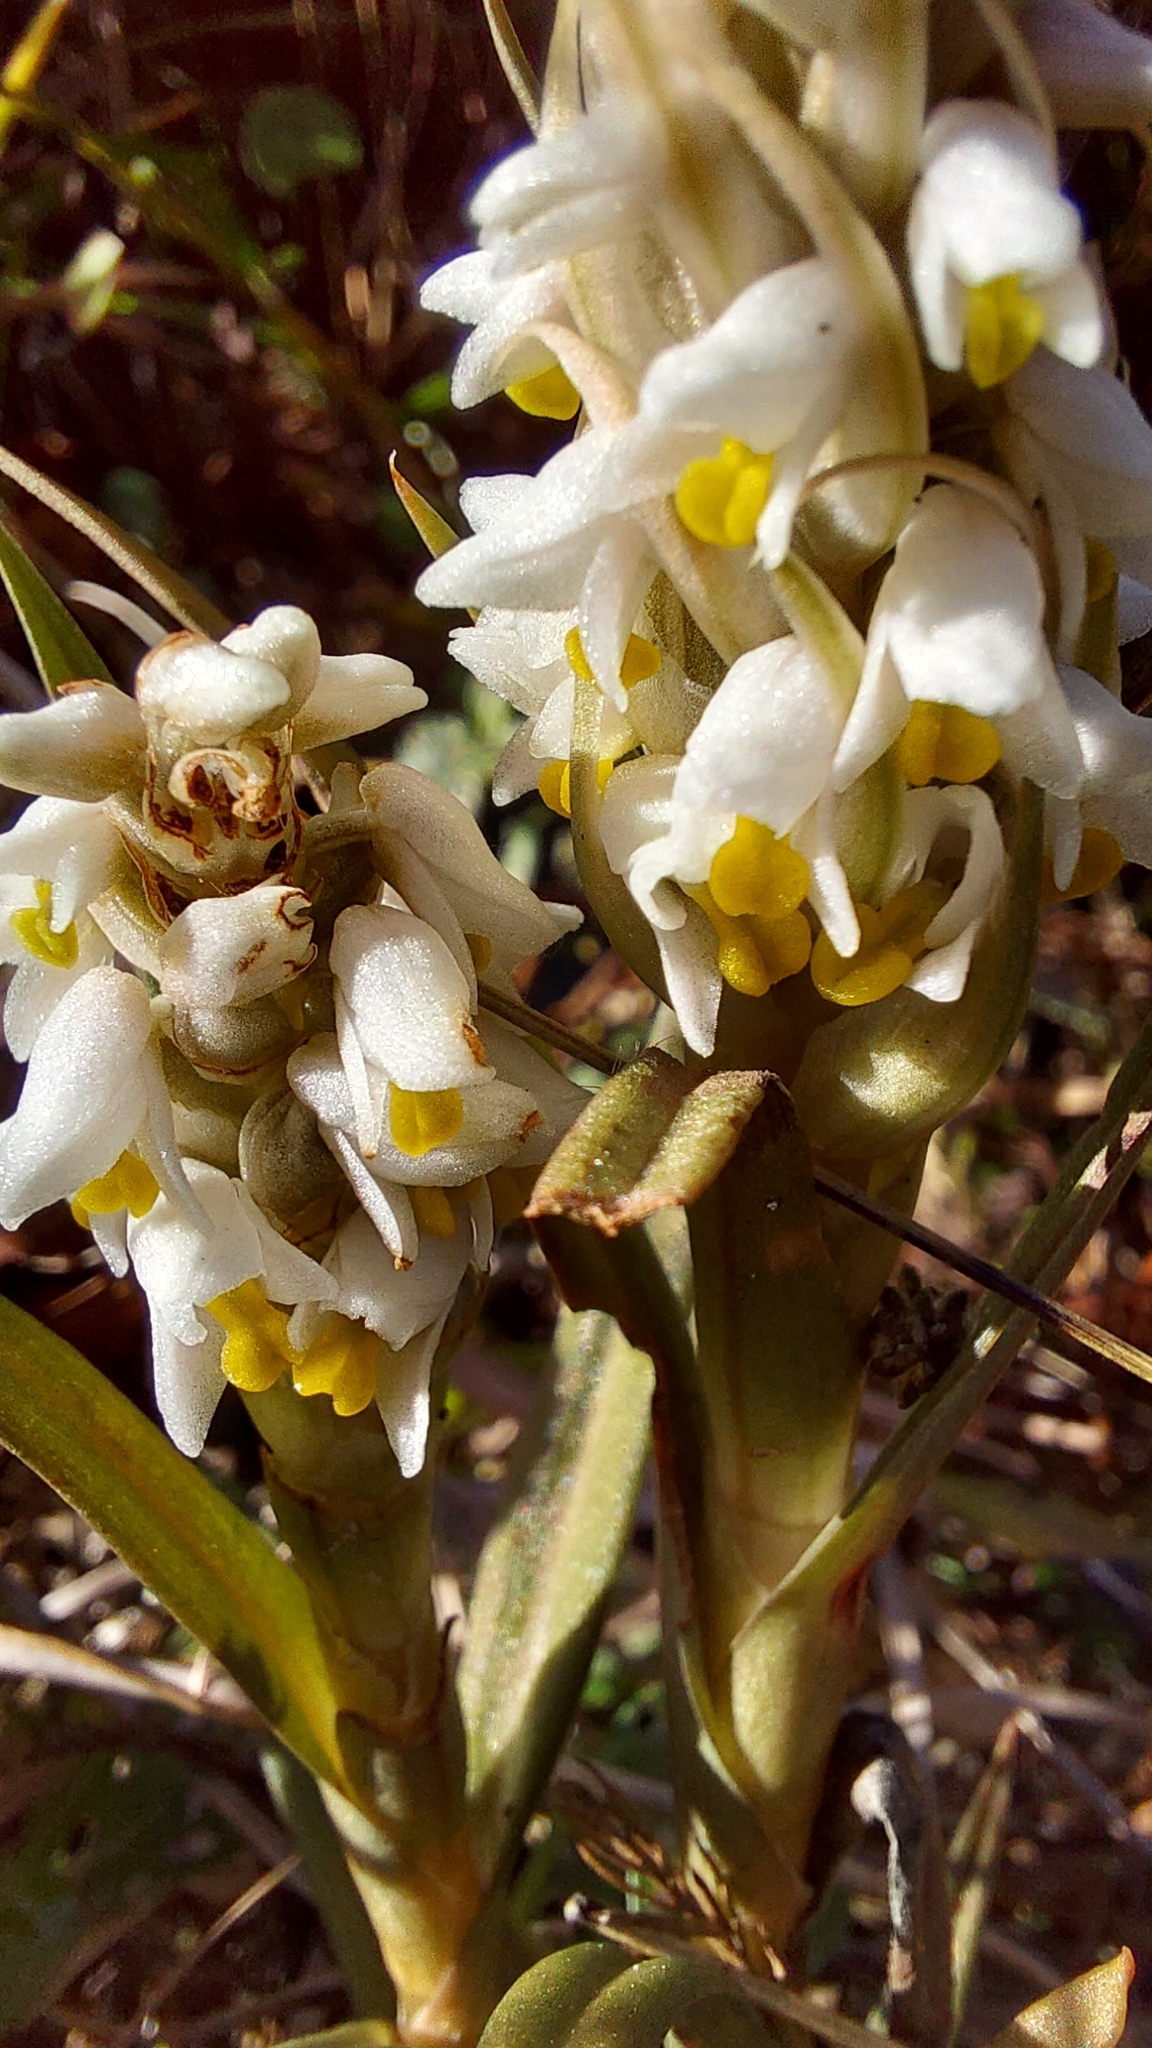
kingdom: Plantae
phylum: Tracheophyta
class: Liliopsida
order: Asparagales
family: Orchidaceae
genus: Zeuxine
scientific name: Zeuxine strateumatica
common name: Soldier's orchid
